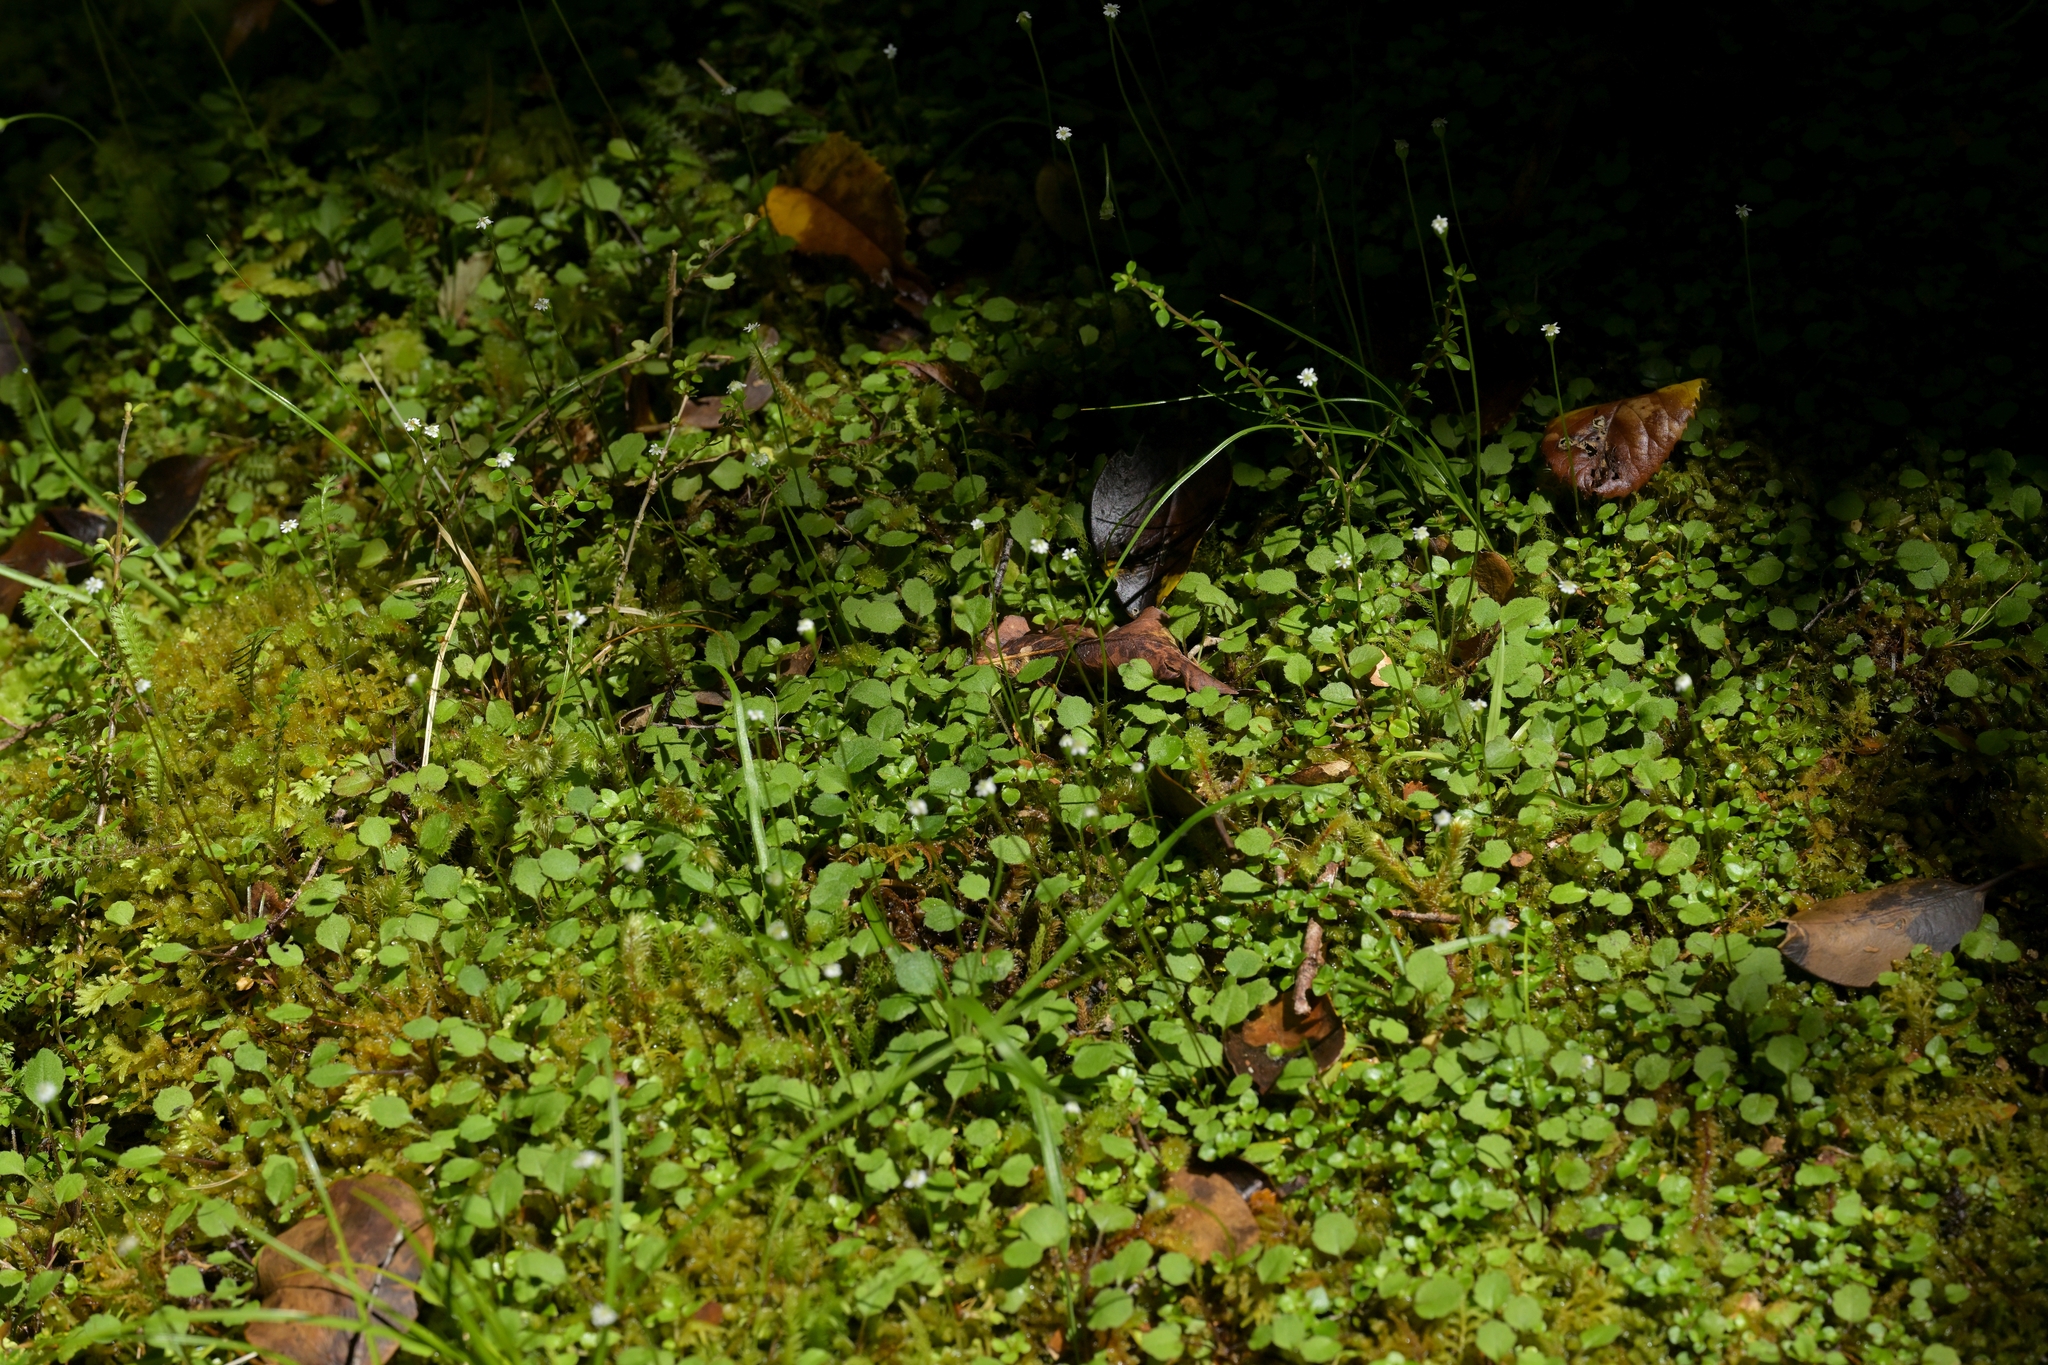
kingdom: Plantae
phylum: Tracheophyta
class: Magnoliopsida
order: Asterales
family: Asteraceae
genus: Lagenophora
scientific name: Lagenophora strangulata
